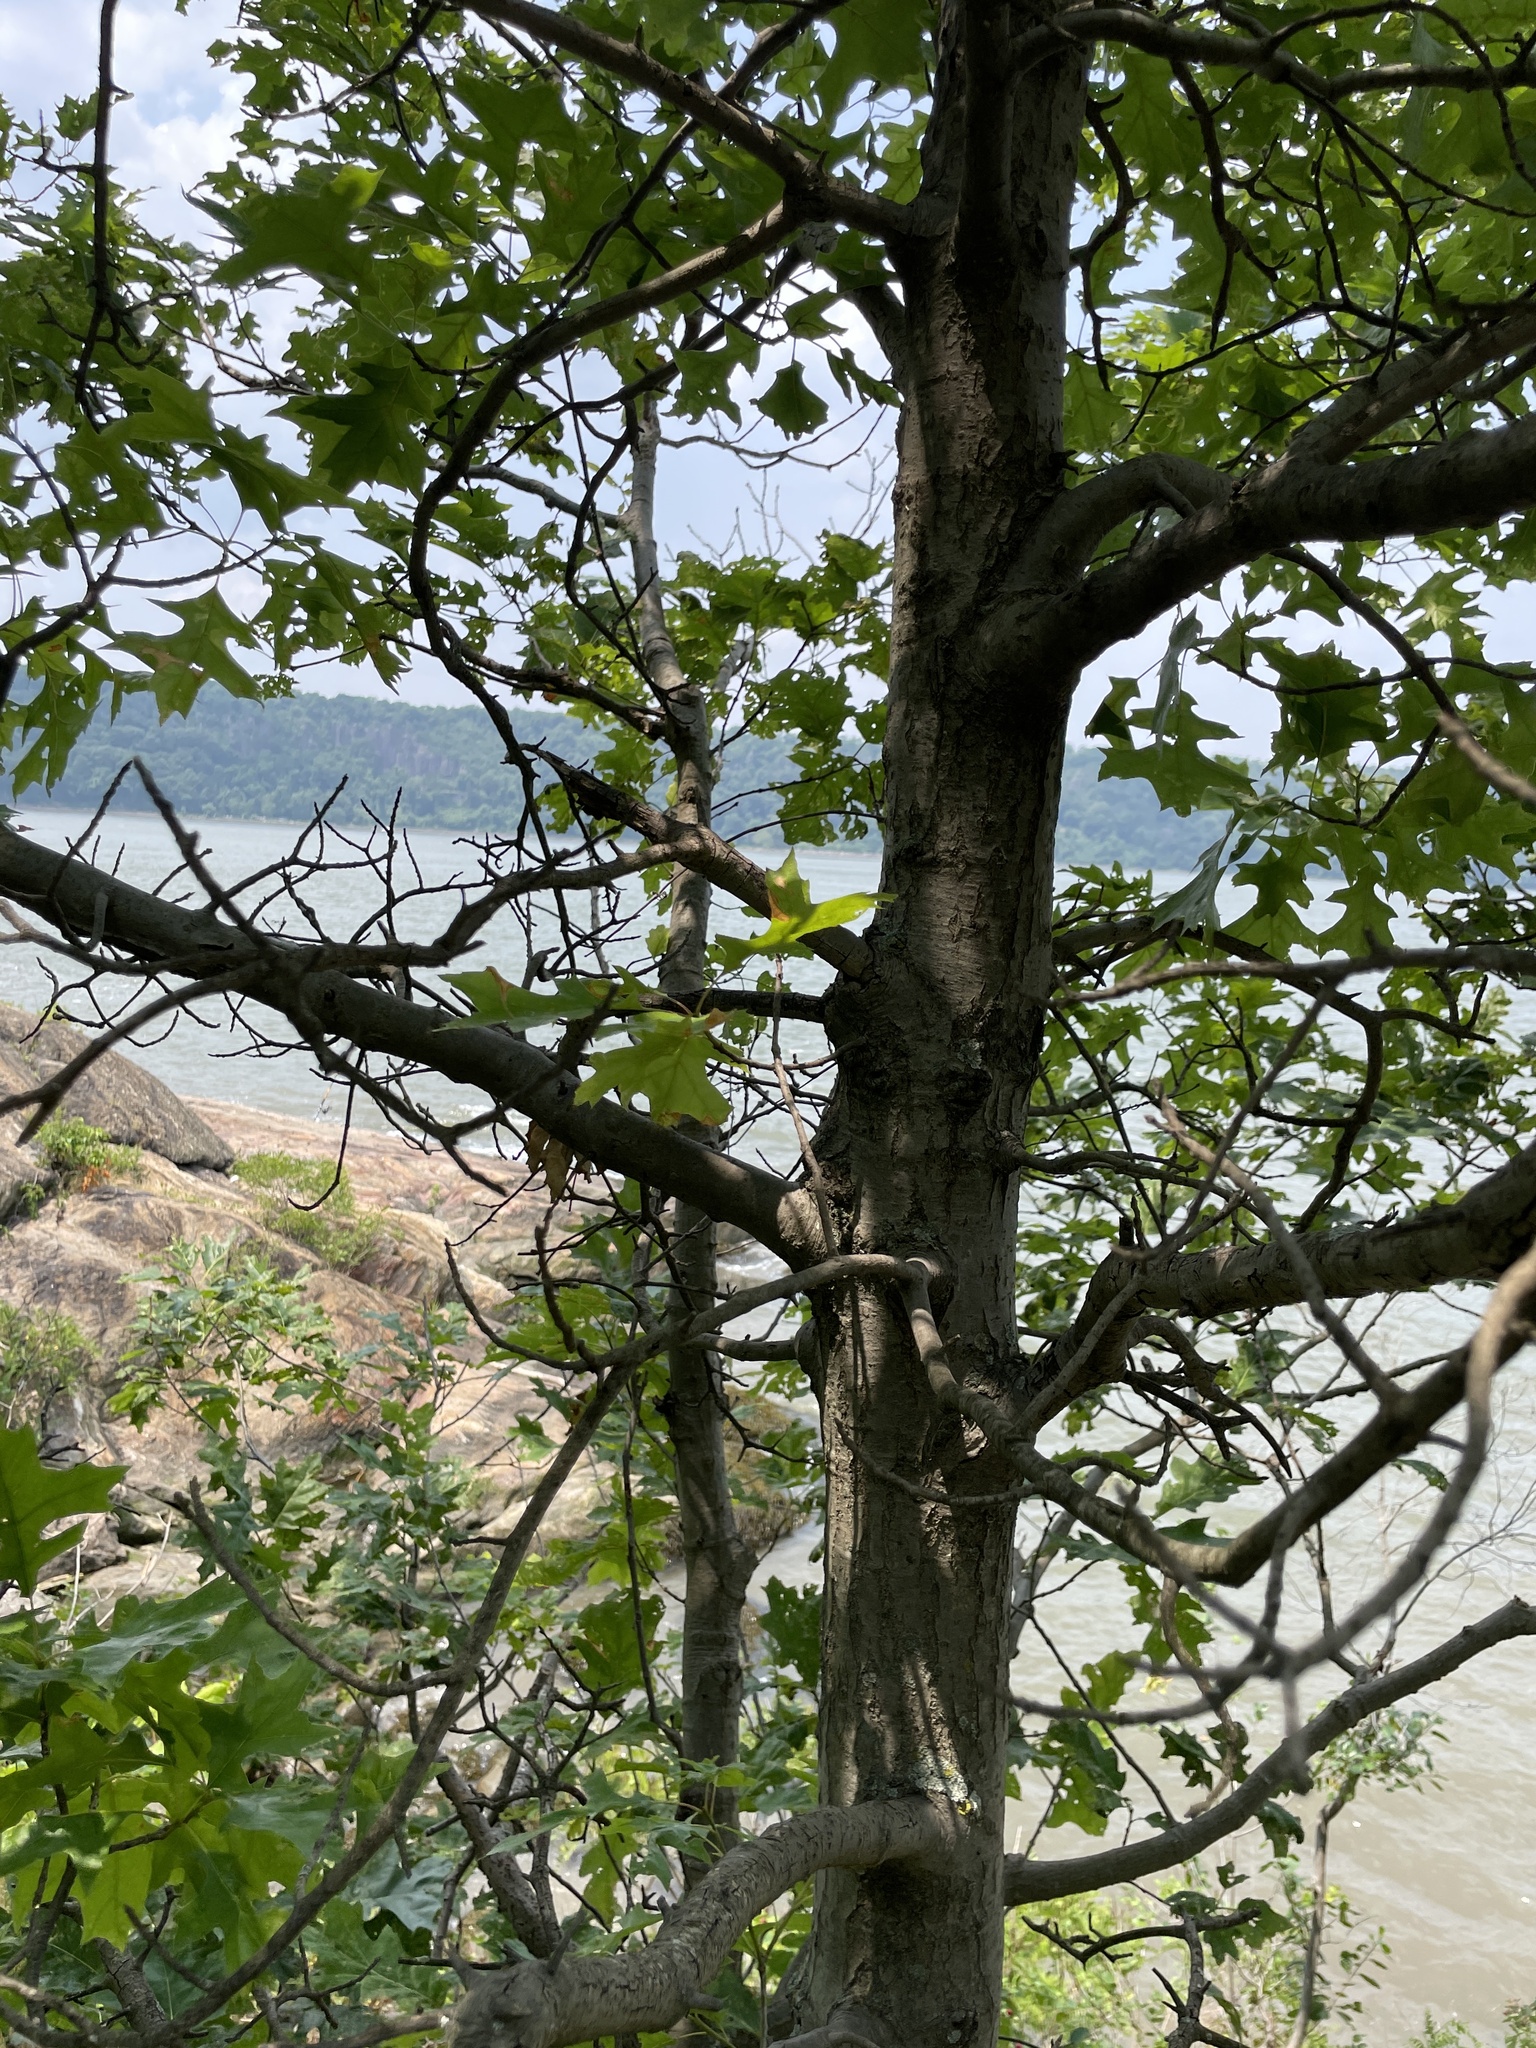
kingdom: Plantae
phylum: Tracheophyta
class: Magnoliopsida
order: Fagales
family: Fagaceae
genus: Quercus
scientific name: Quercus palustris
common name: Pin oak
